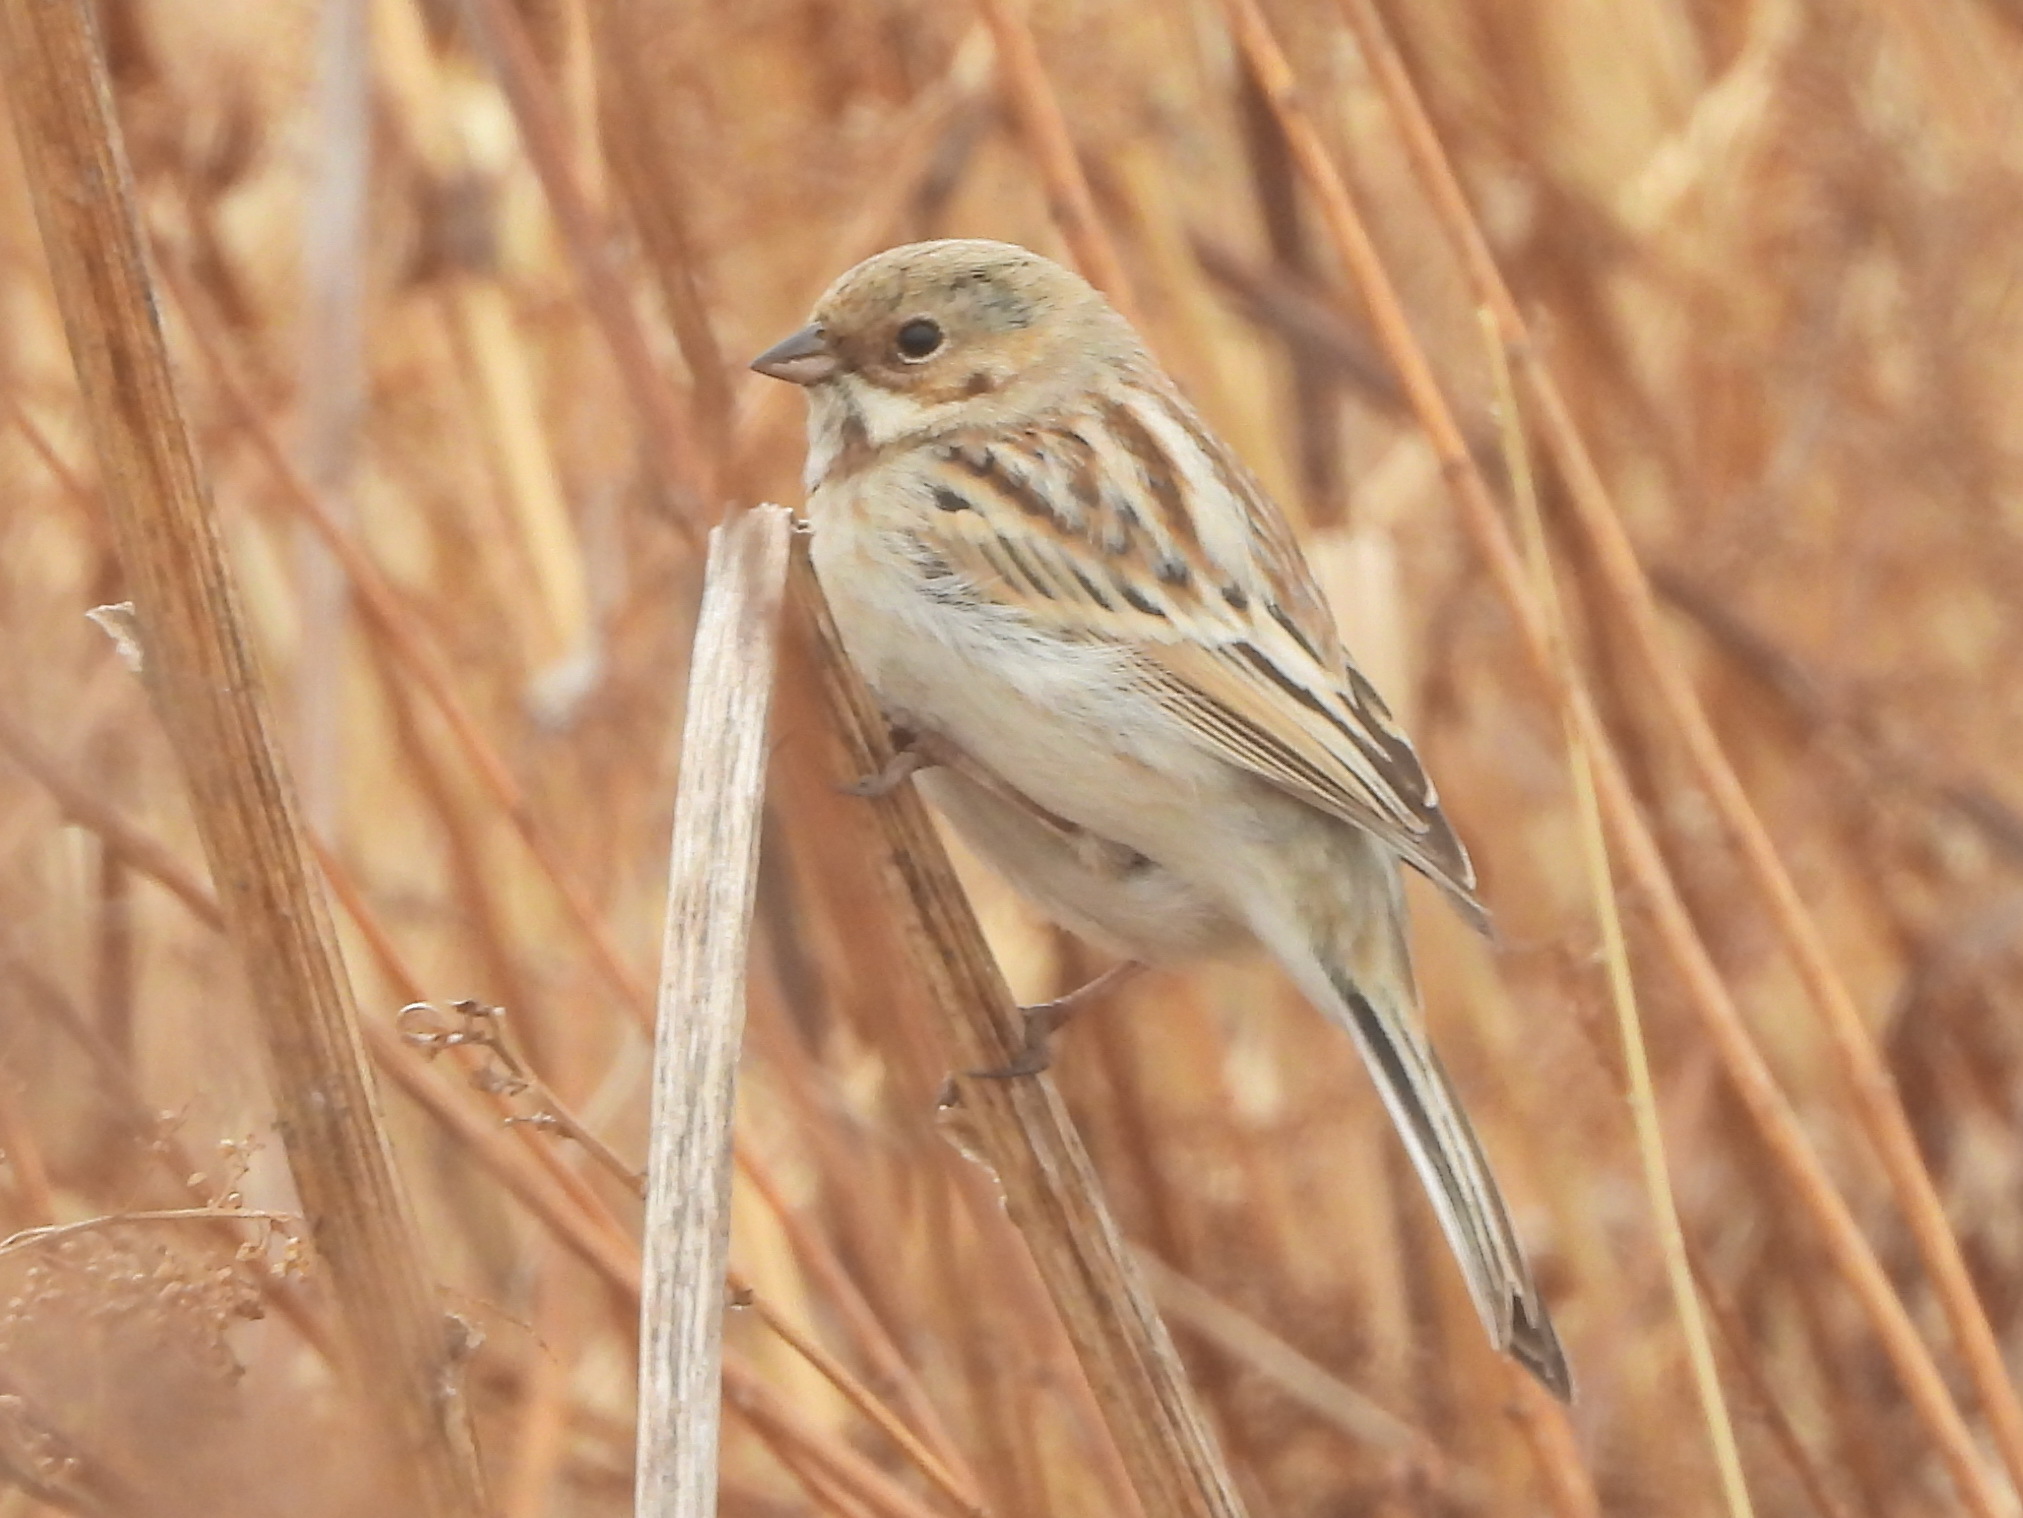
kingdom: Animalia
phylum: Chordata
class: Aves
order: Passeriformes
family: Emberizidae
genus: Emberiza
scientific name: Emberiza pallasi
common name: Pallas's reed bunting
